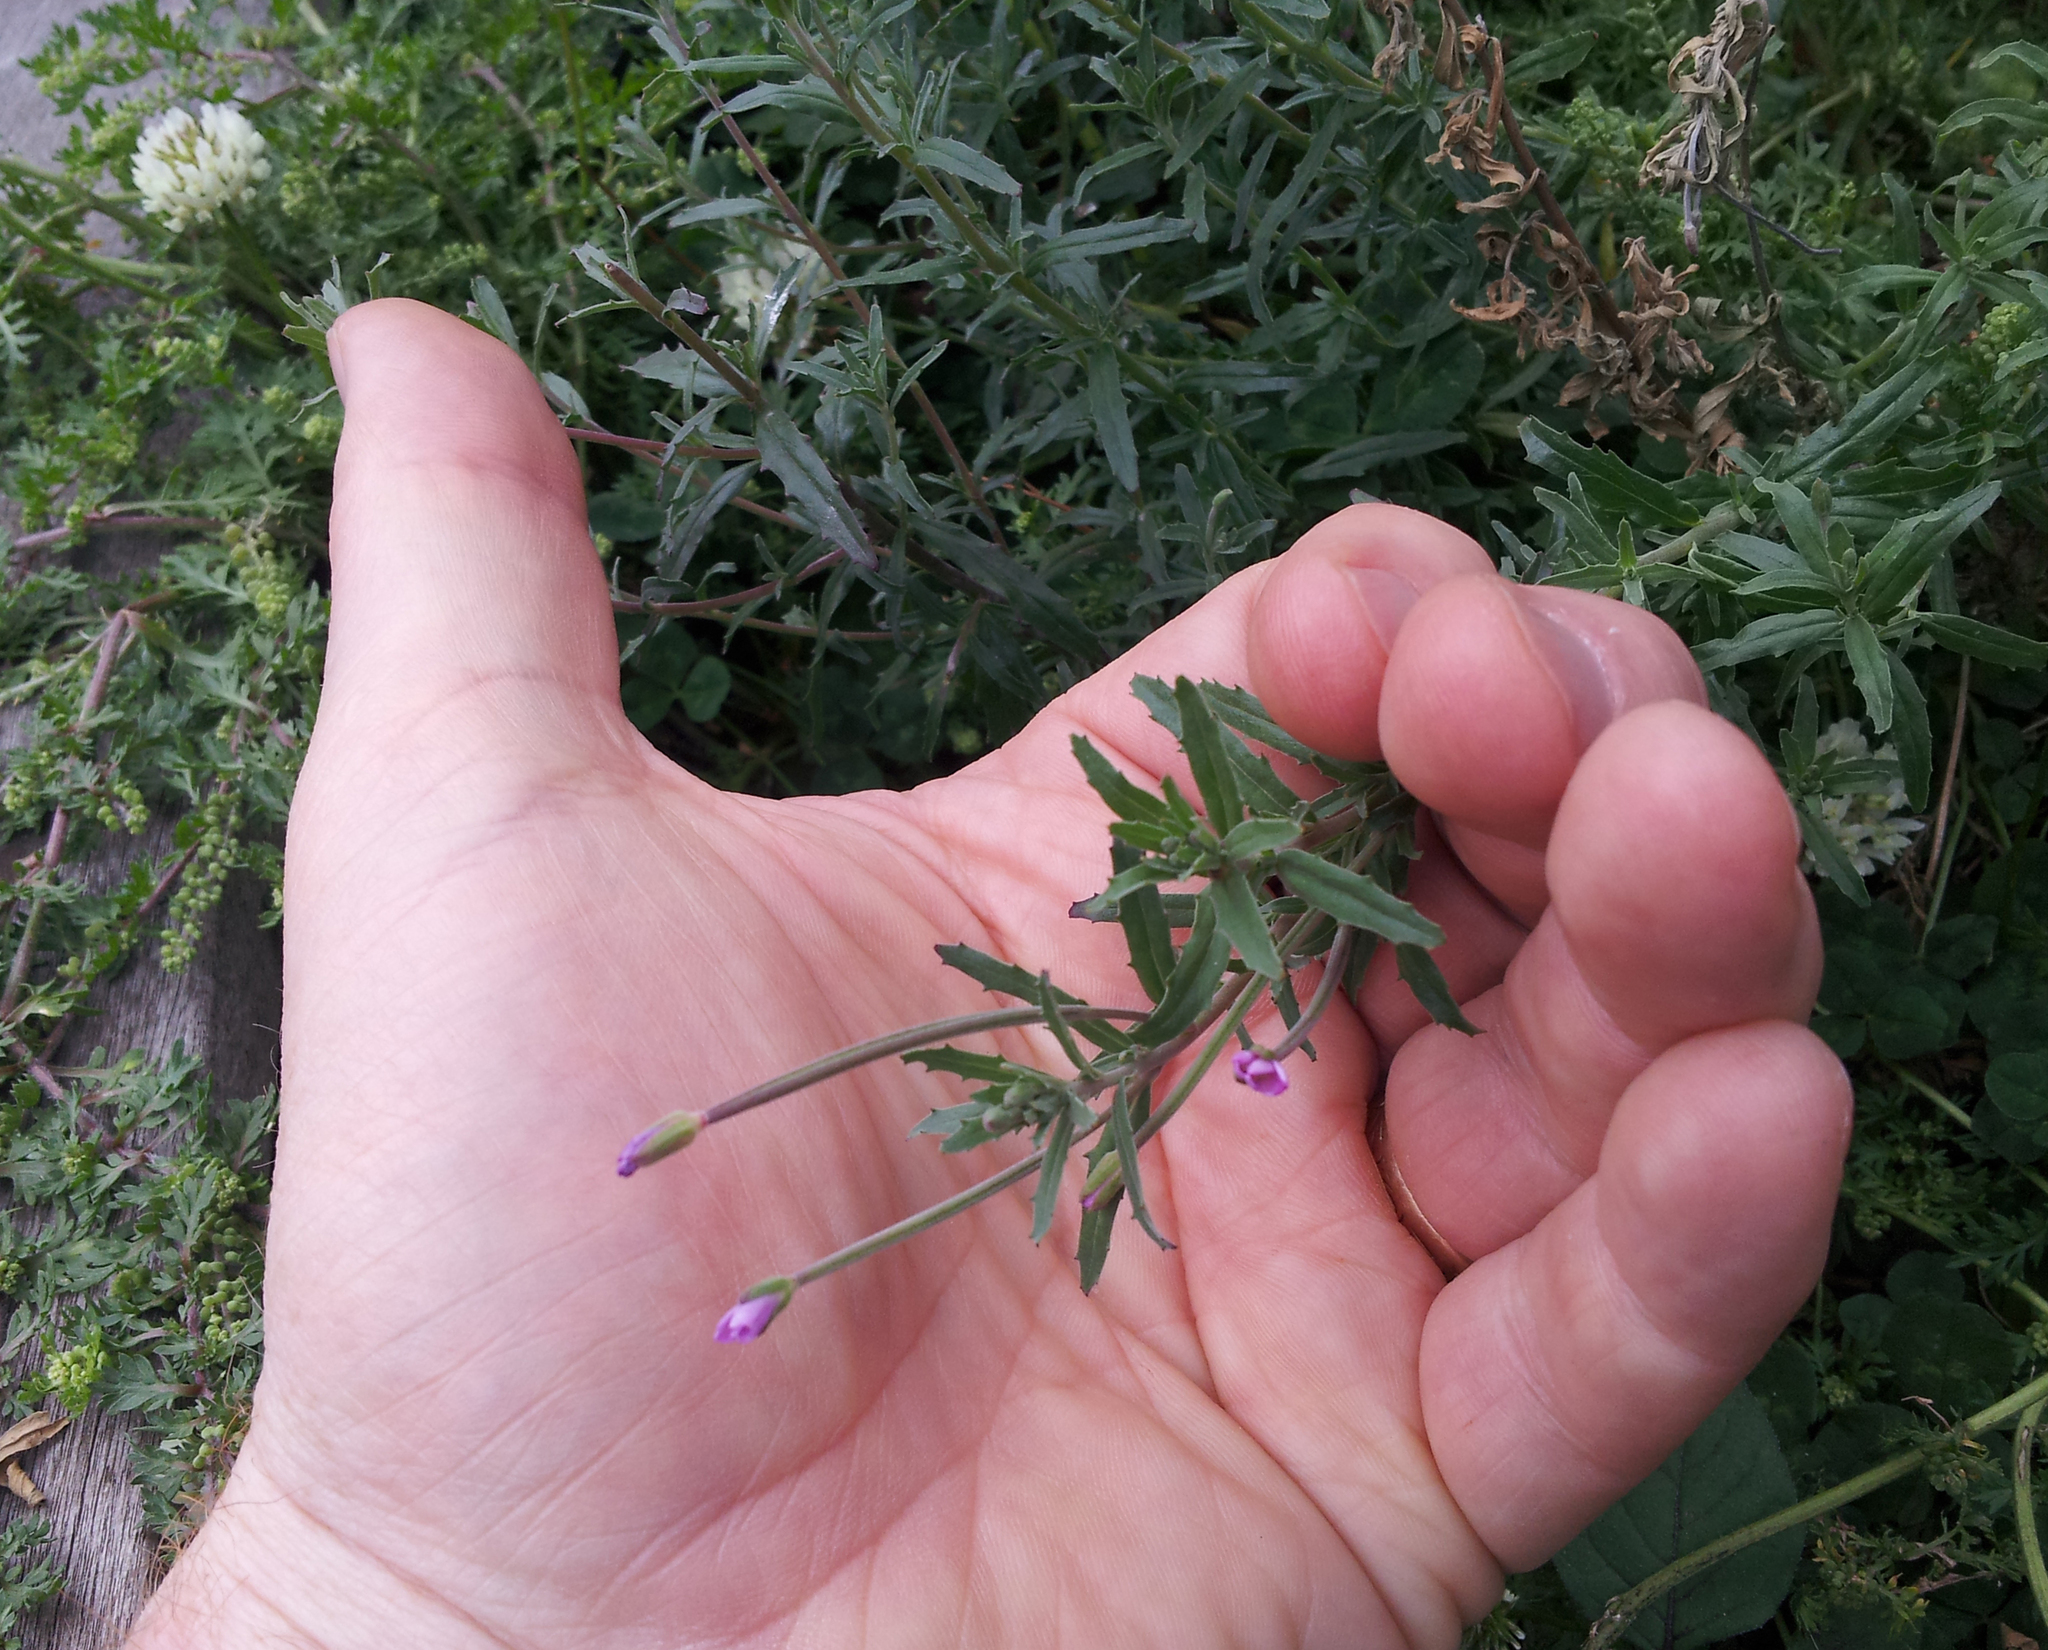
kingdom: Plantae
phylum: Tracheophyta
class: Magnoliopsida
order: Myrtales
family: Onagraceae
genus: Epilobium
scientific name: Epilobium billardierianum
